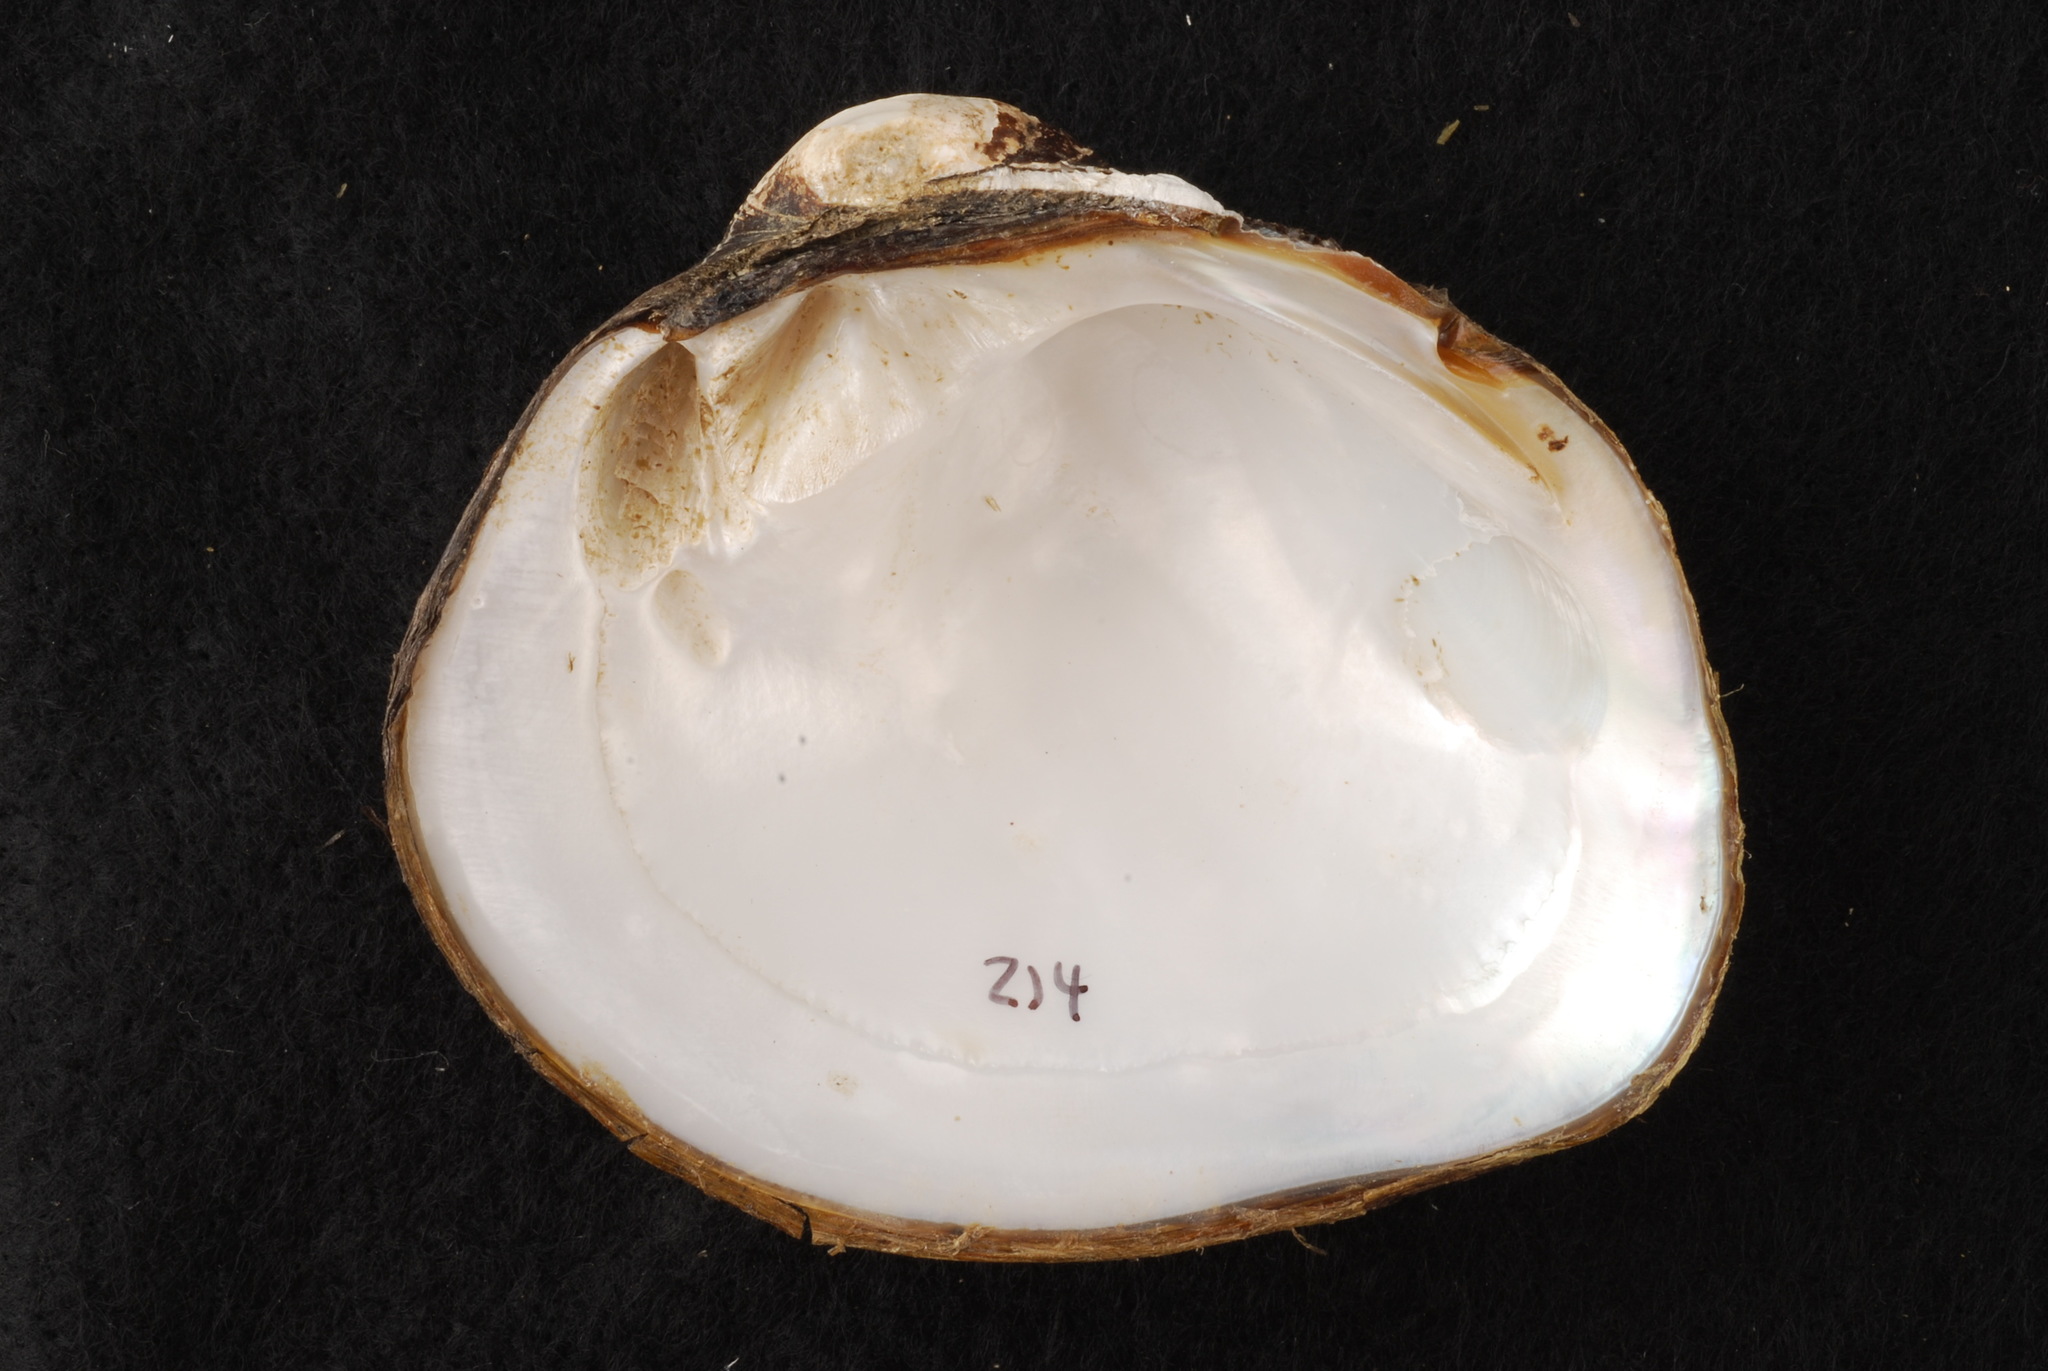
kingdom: Animalia
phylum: Mollusca
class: Bivalvia
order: Unionida
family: Unionidae
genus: Cyclonaias
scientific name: Cyclonaias pustulosa
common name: Pimpleback
